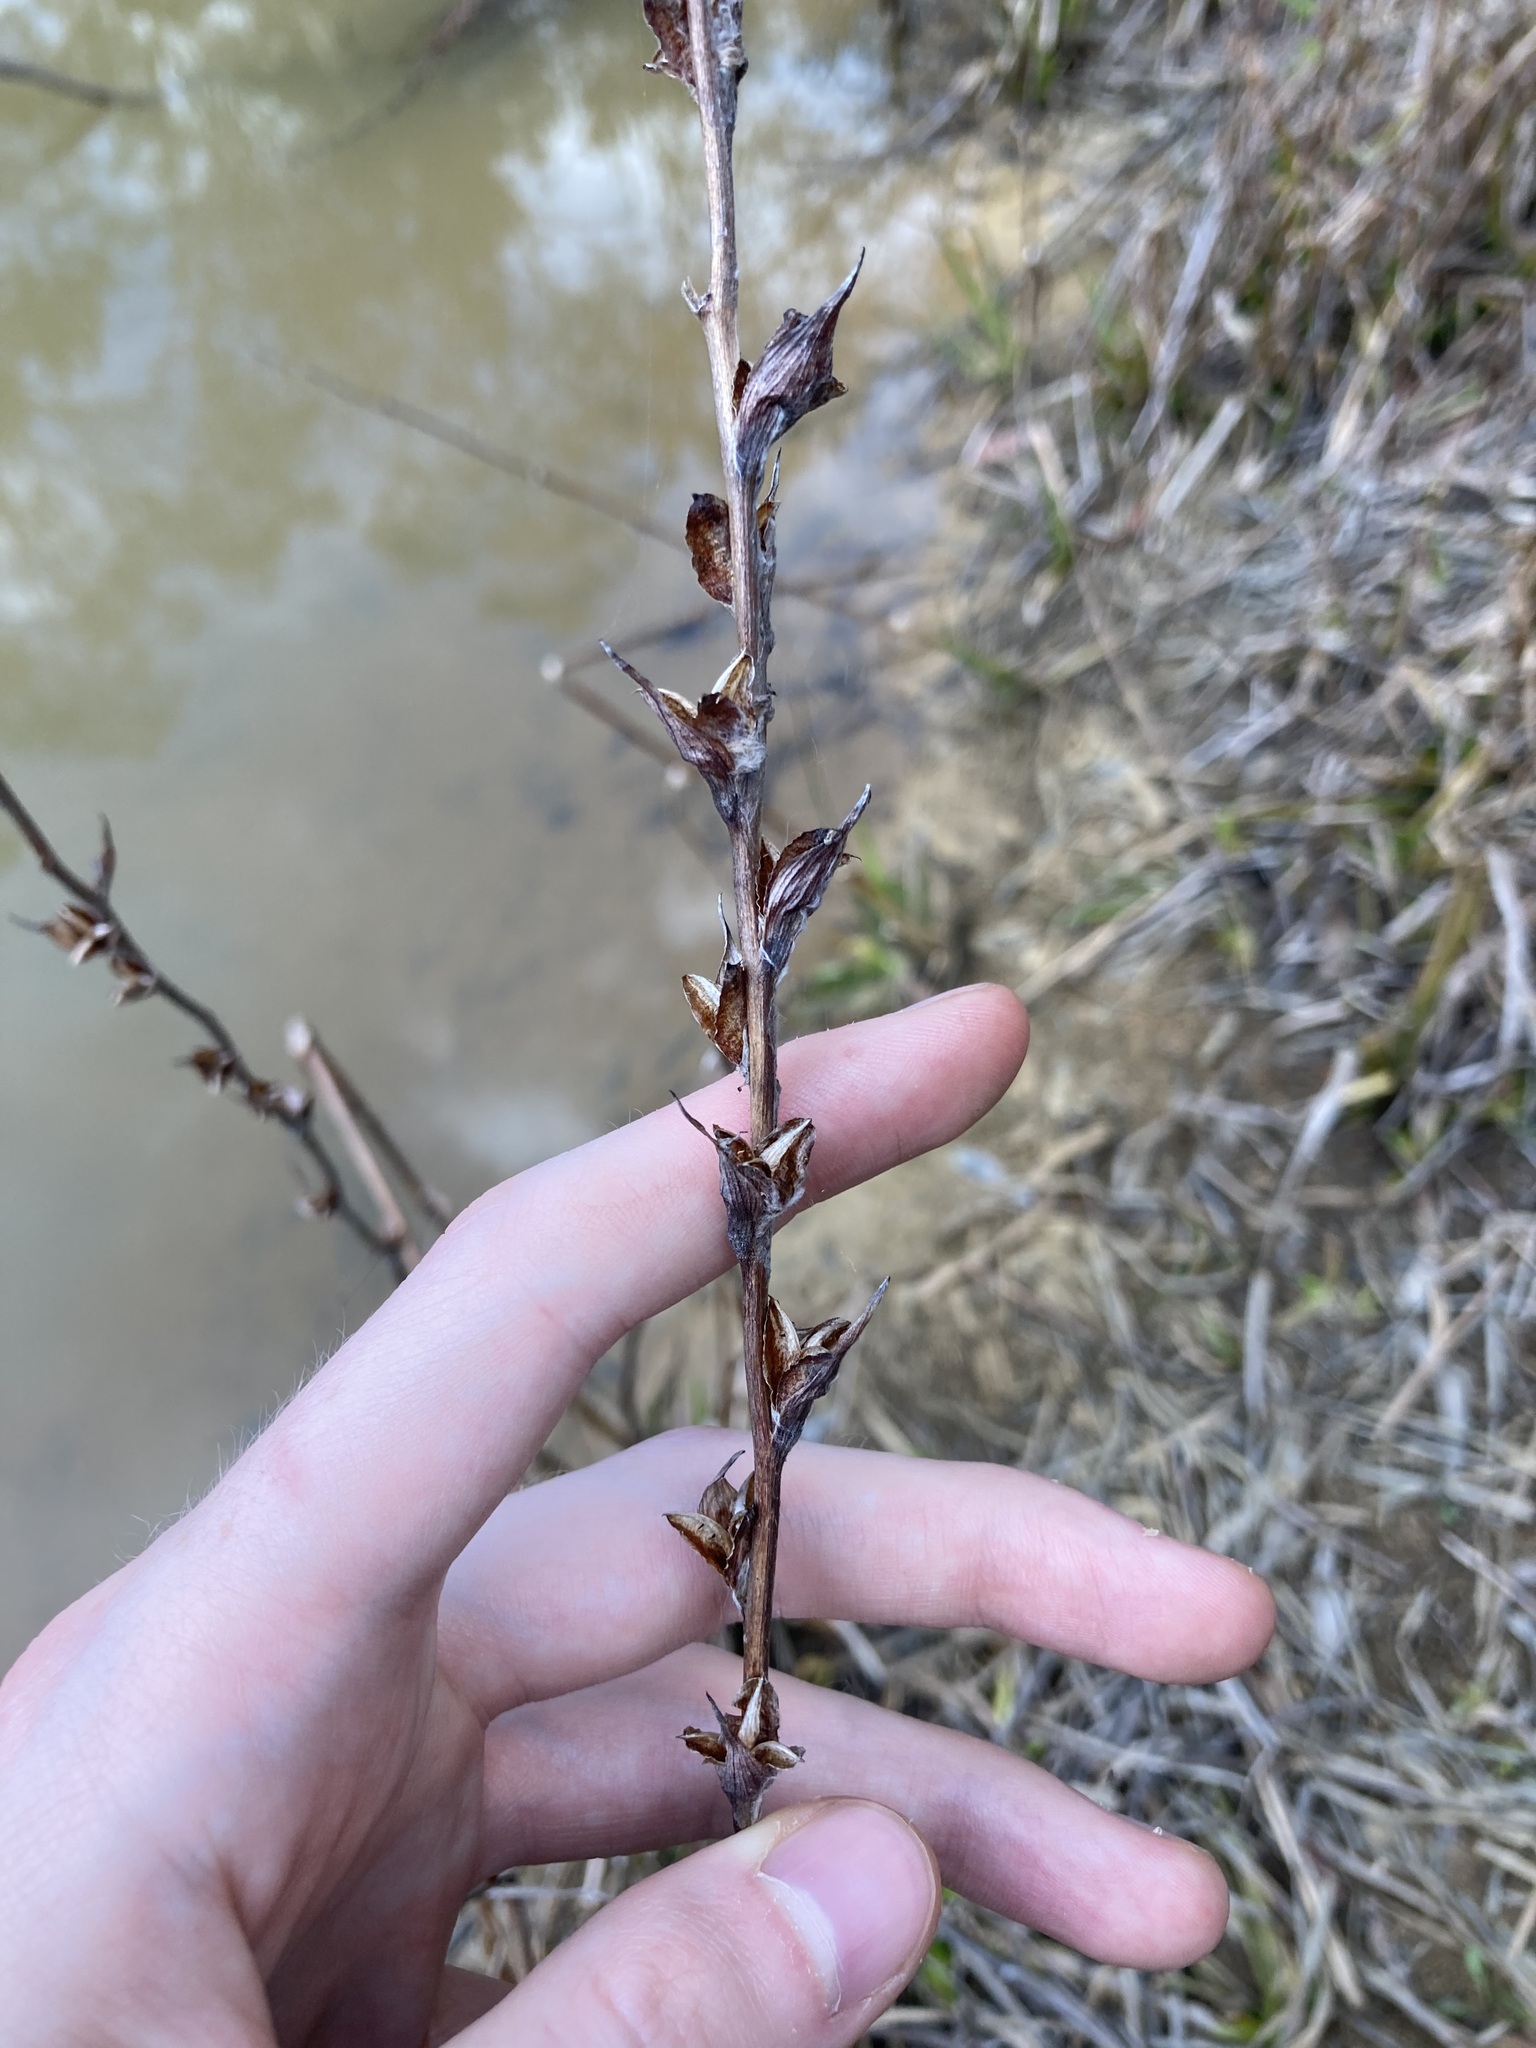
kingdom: Plantae
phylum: Tracheophyta
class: Liliopsida
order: Commelinales
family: Philydraceae
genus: Philydrum
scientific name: Philydrum lanuginosum
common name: Woolly frog's mouth
